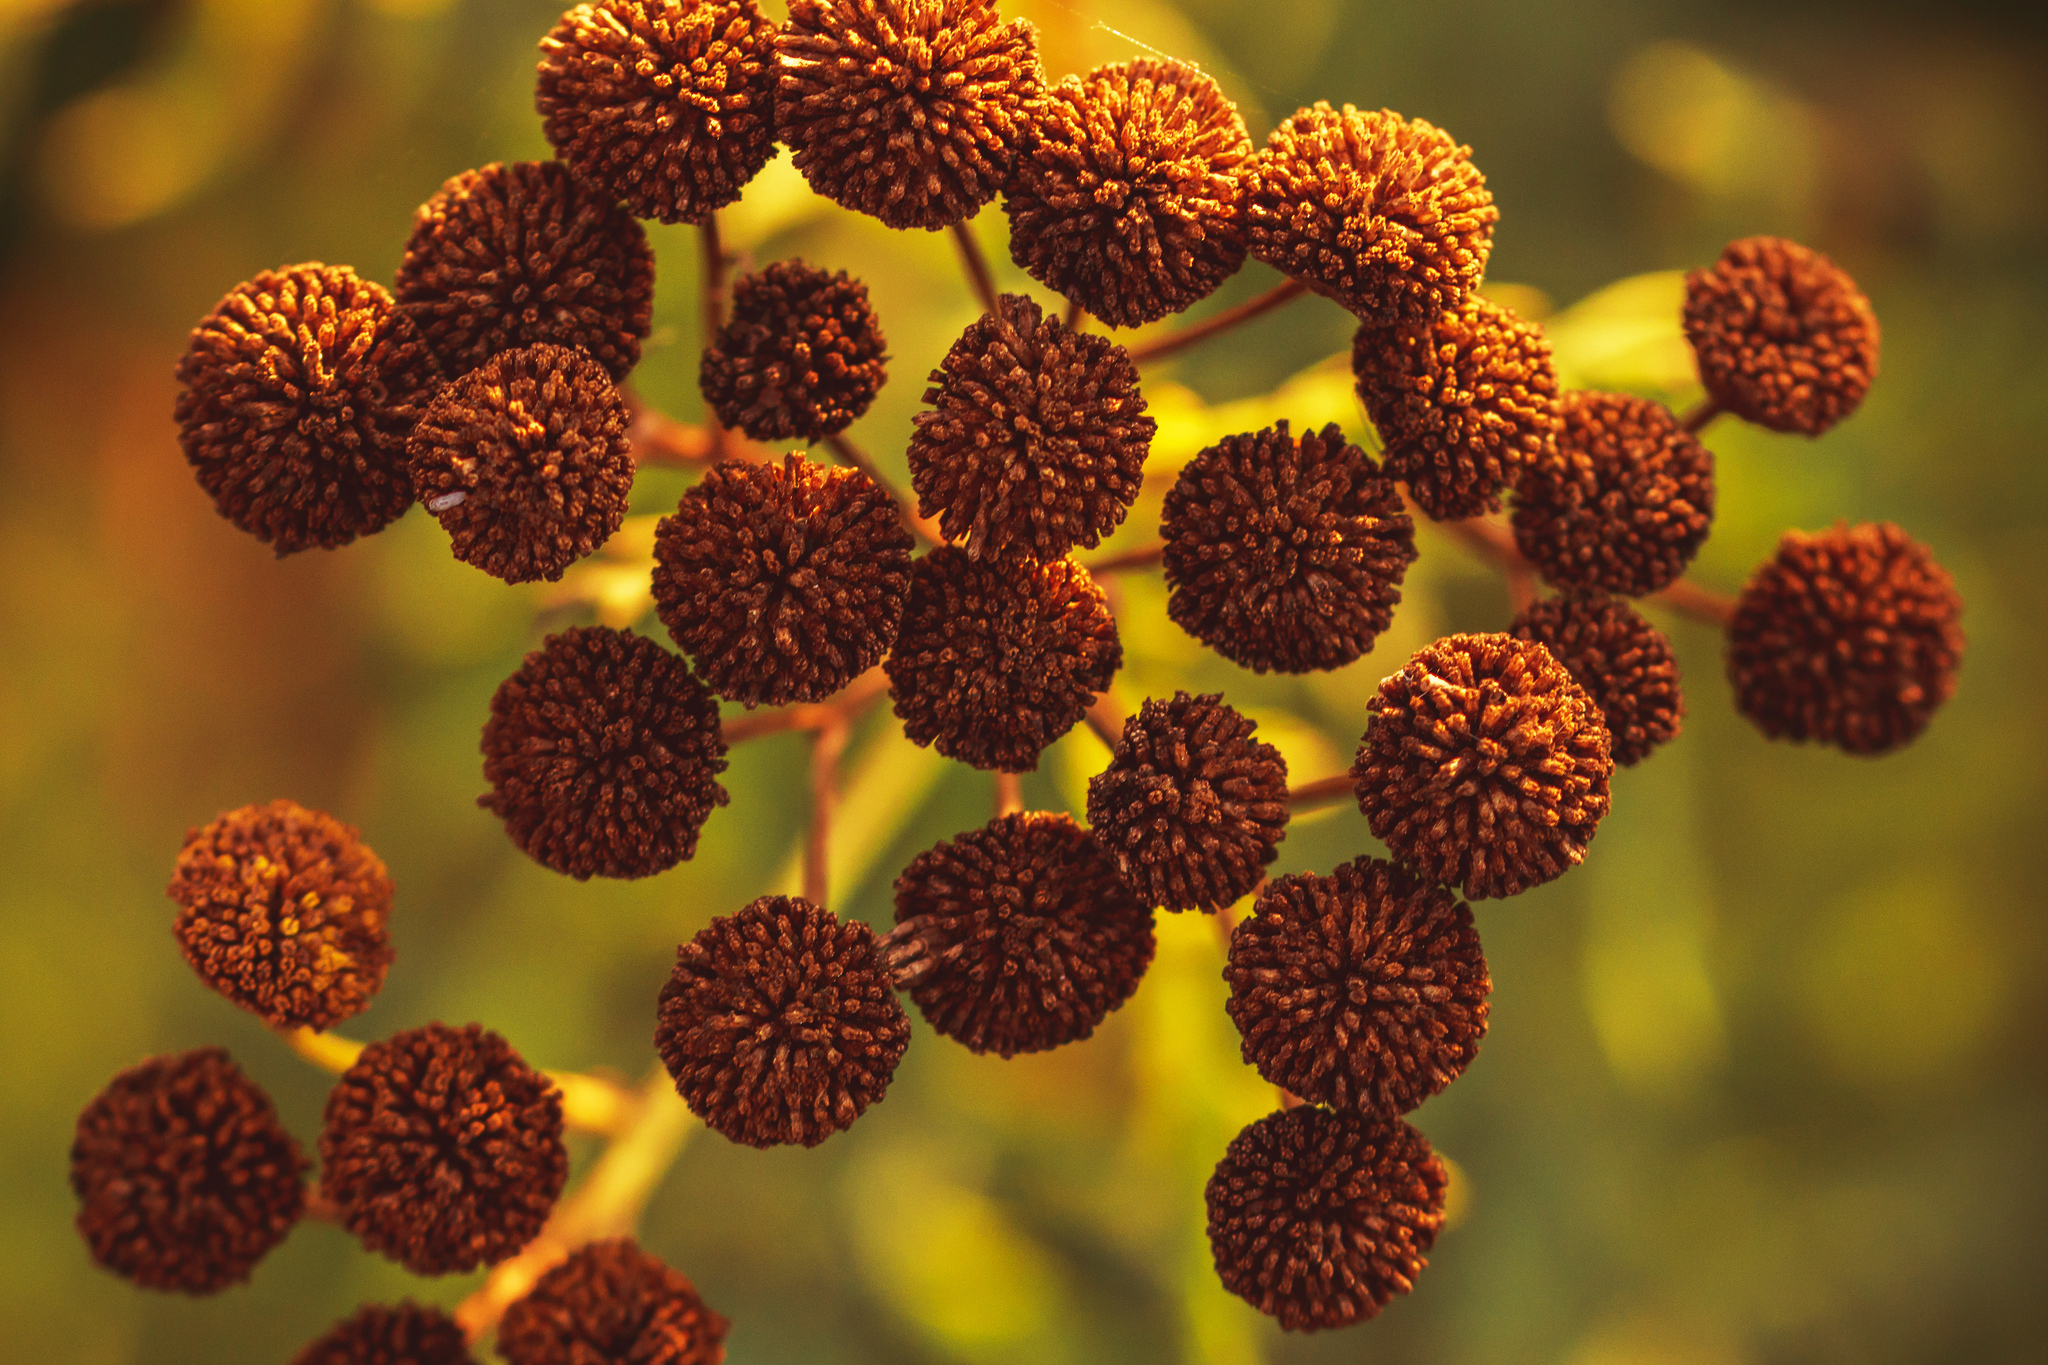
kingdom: Plantae
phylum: Tracheophyta
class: Magnoliopsida
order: Asterales
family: Asteraceae
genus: Tanacetum
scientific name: Tanacetum vulgare
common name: Common tansy
